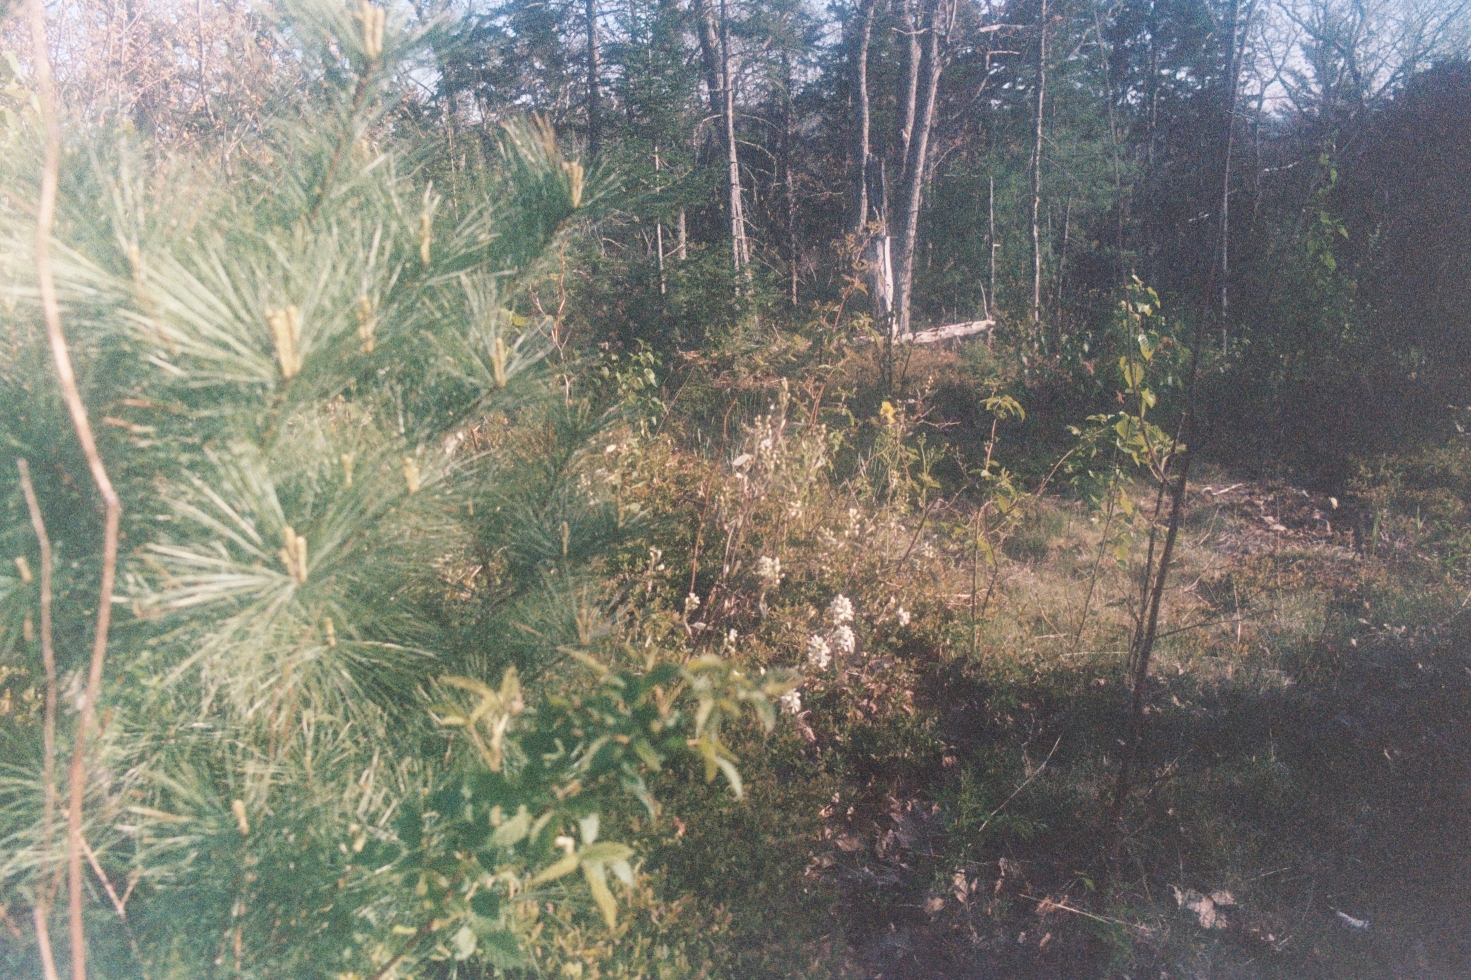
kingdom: Plantae
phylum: Tracheophyta
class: Pinopsida
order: Pinales
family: Pinaceae
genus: Pinus
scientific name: Pinus strobus
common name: Weymouth pine
